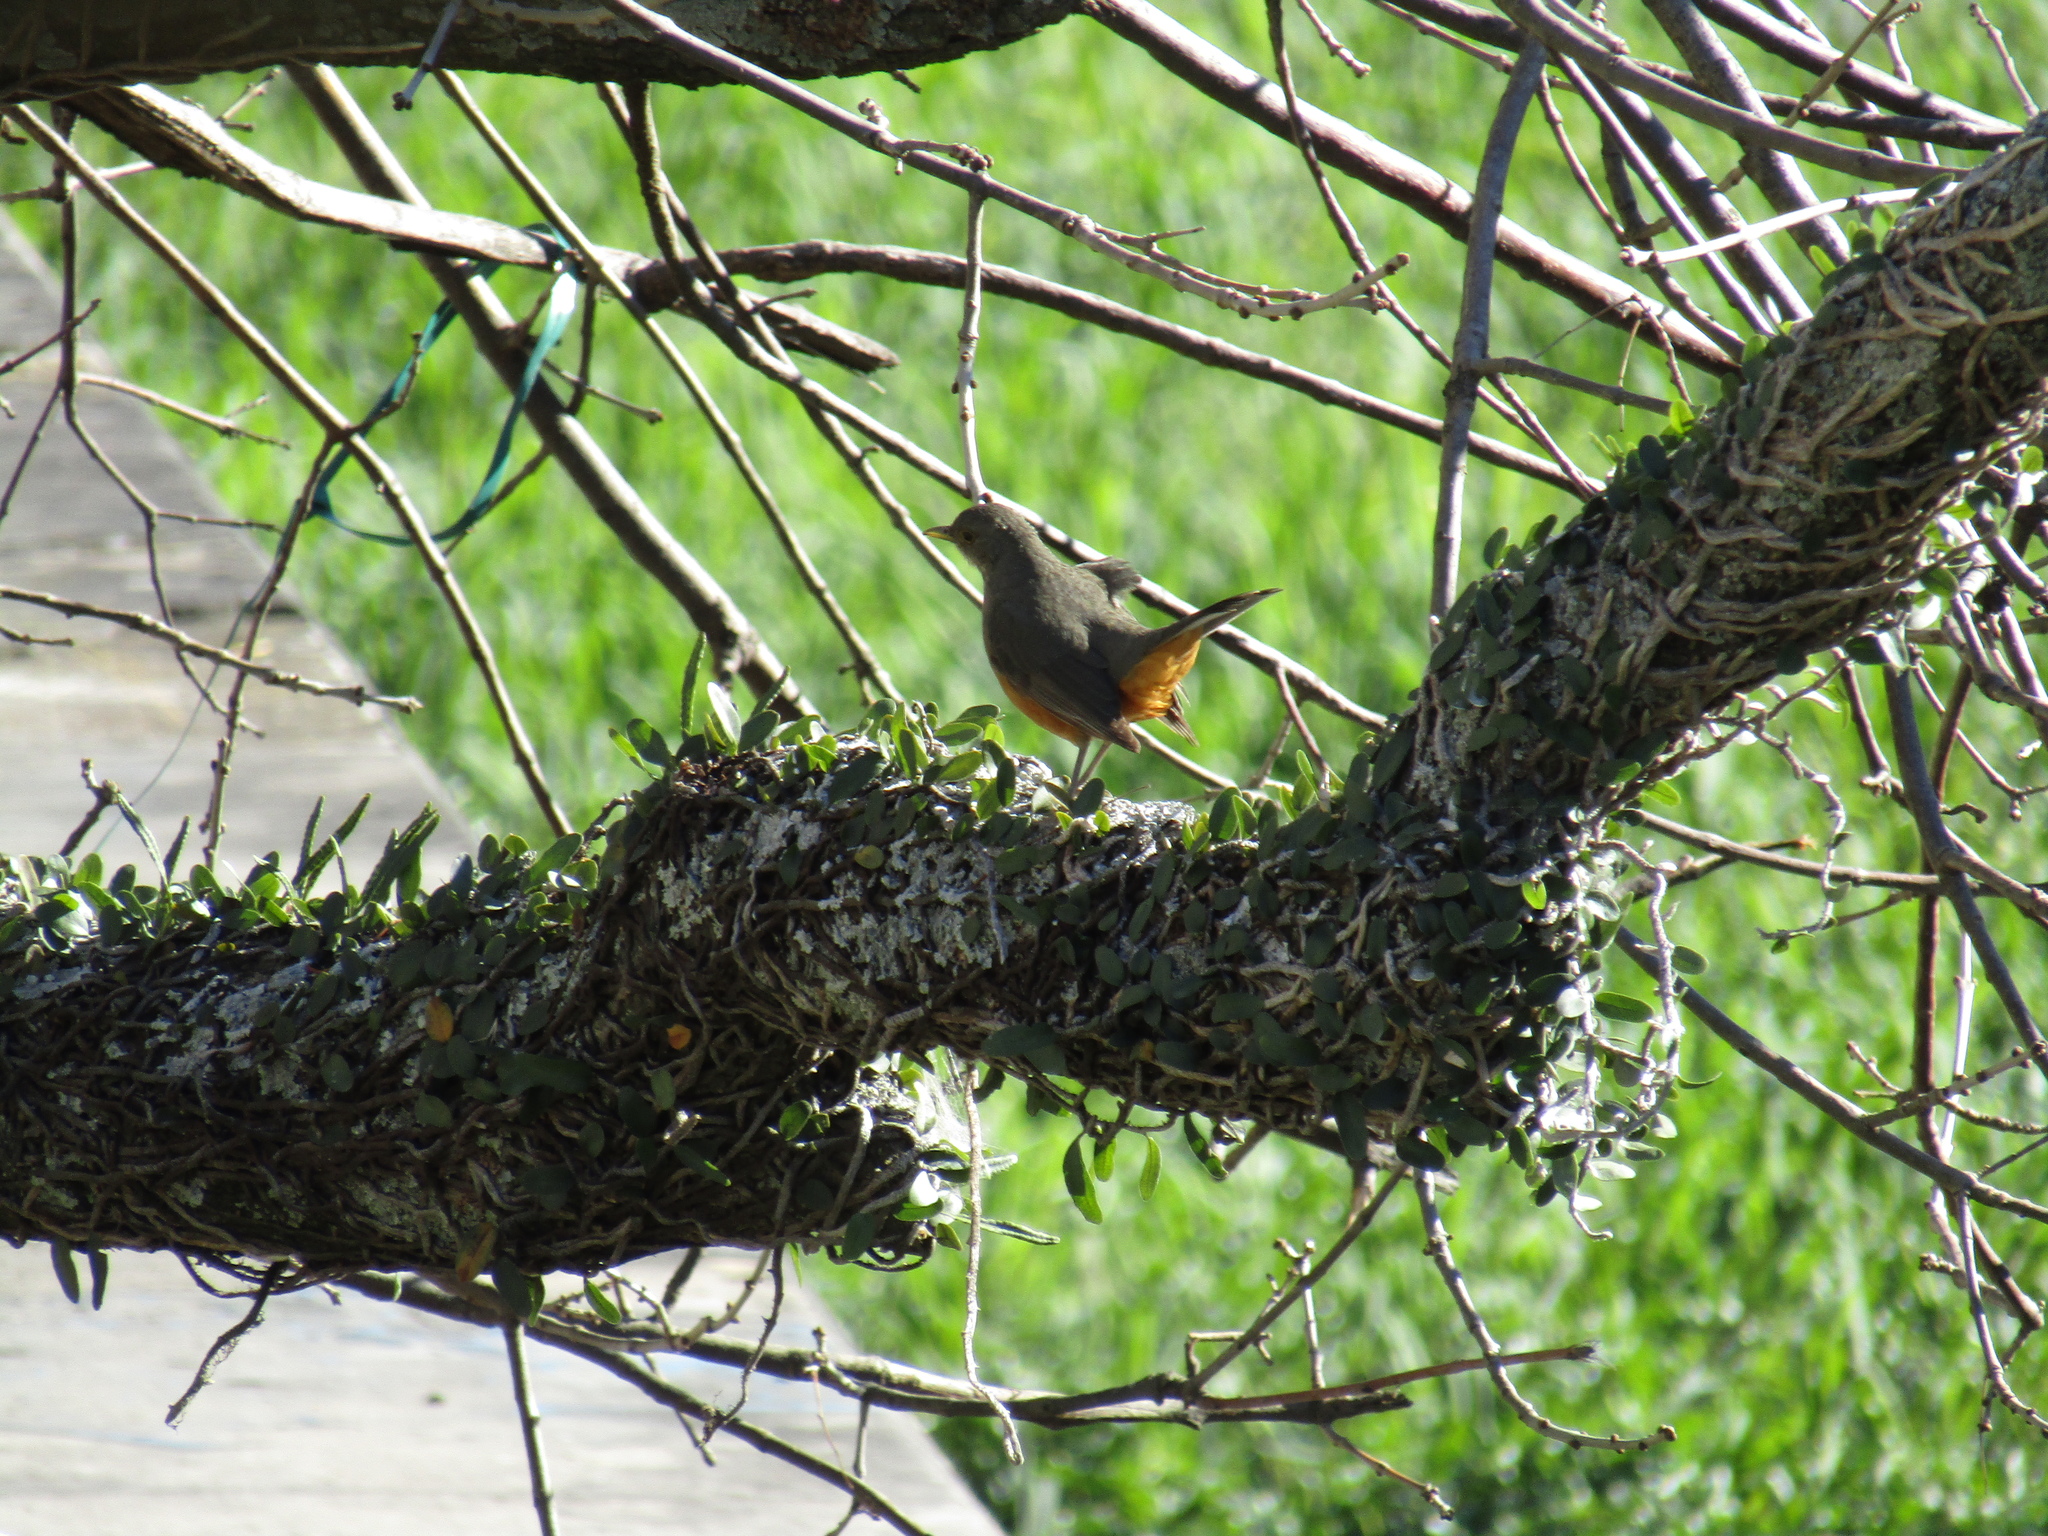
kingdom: Animalia
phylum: Chordata
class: Aves
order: Passeriformes
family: Turdidae
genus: Turdus
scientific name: Turdus rufiventris
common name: Rufous-bellied thrush
